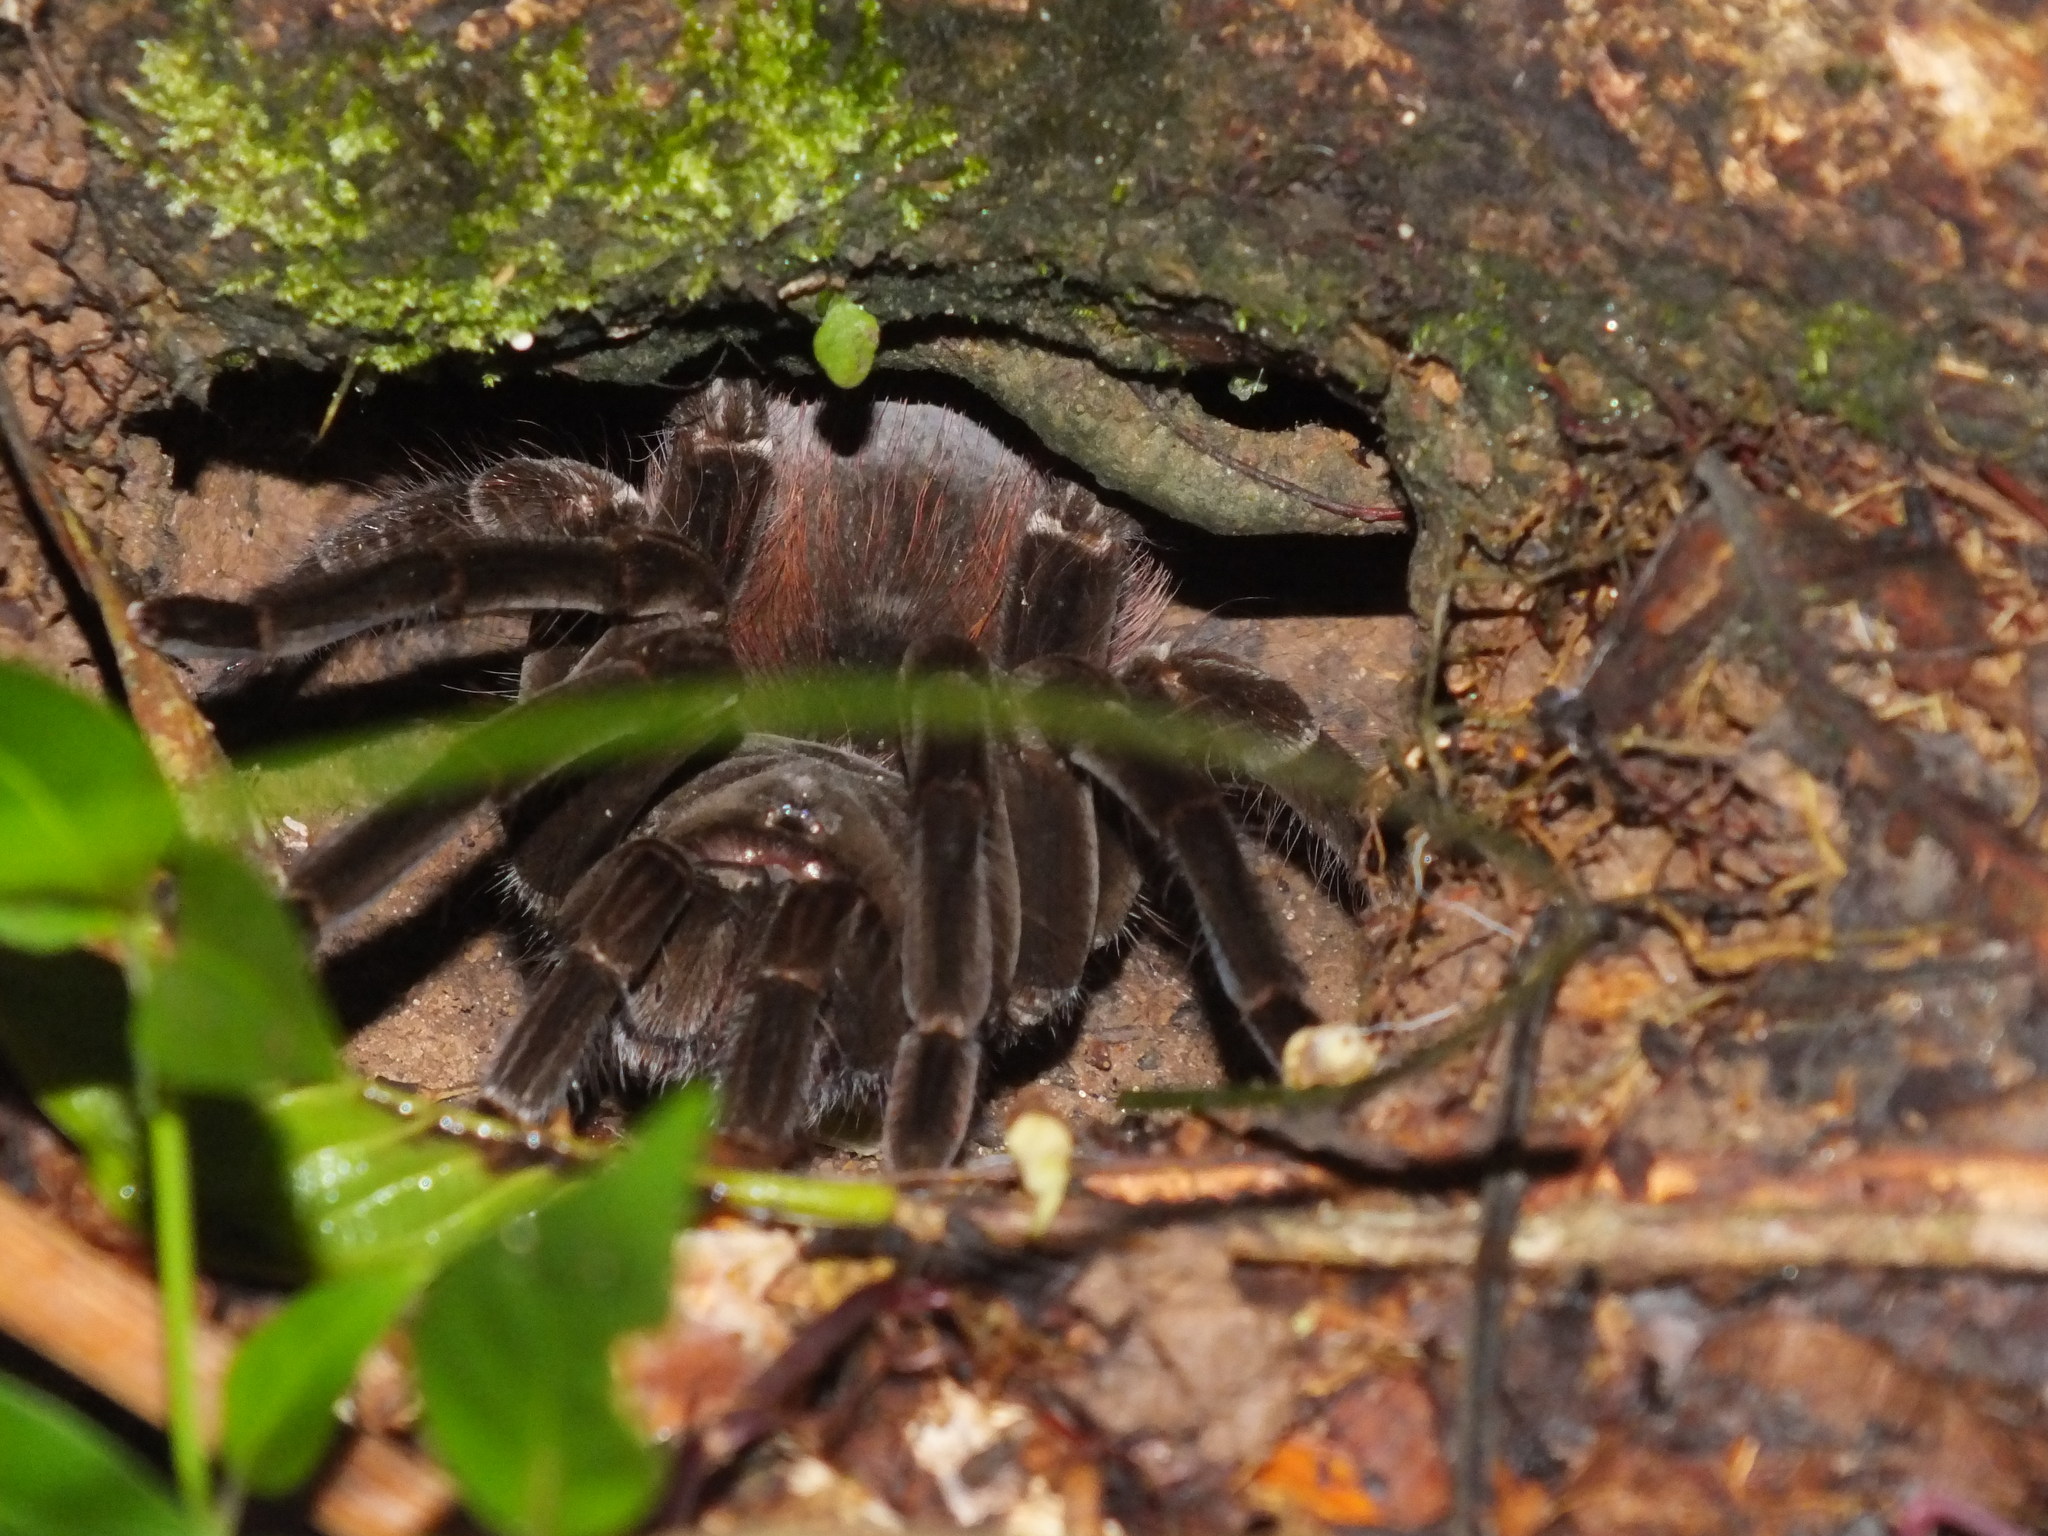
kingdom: Animalia
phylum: Arthropoda
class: Arachnida
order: Araneae
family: Theraphosidae
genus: Megaphobema
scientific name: Megaphobema velvetosoma
